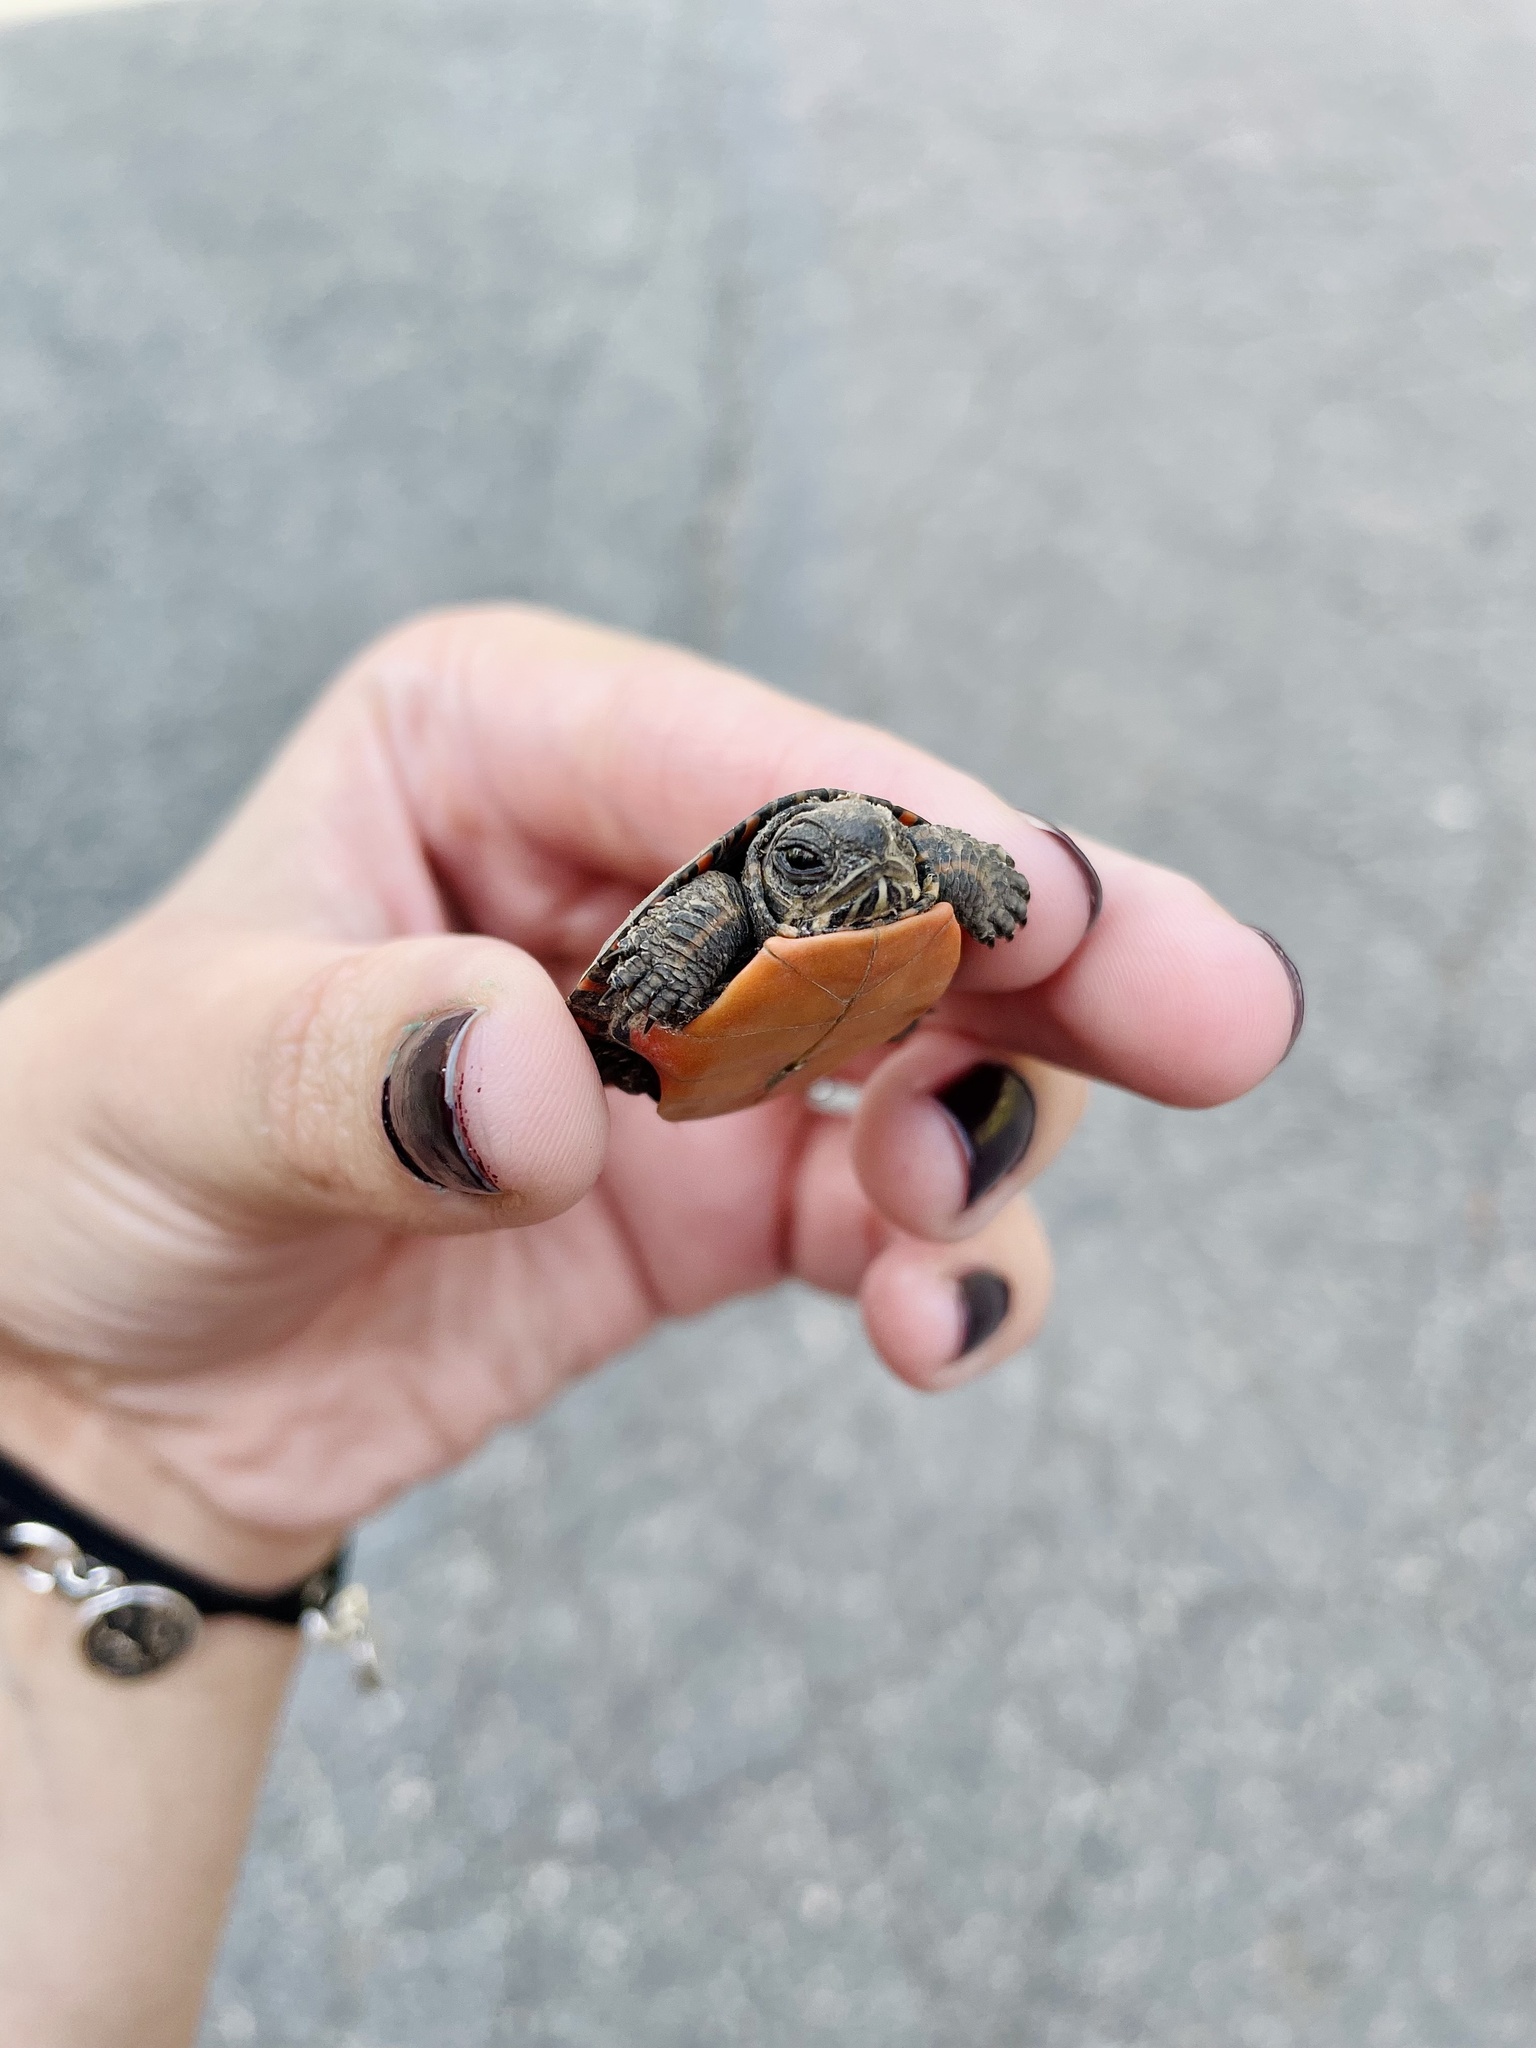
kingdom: Animalia
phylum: Chordata
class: Testudines
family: Emydidae
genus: Chrysemys
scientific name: Chrysemys picta
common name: Painted turtle
